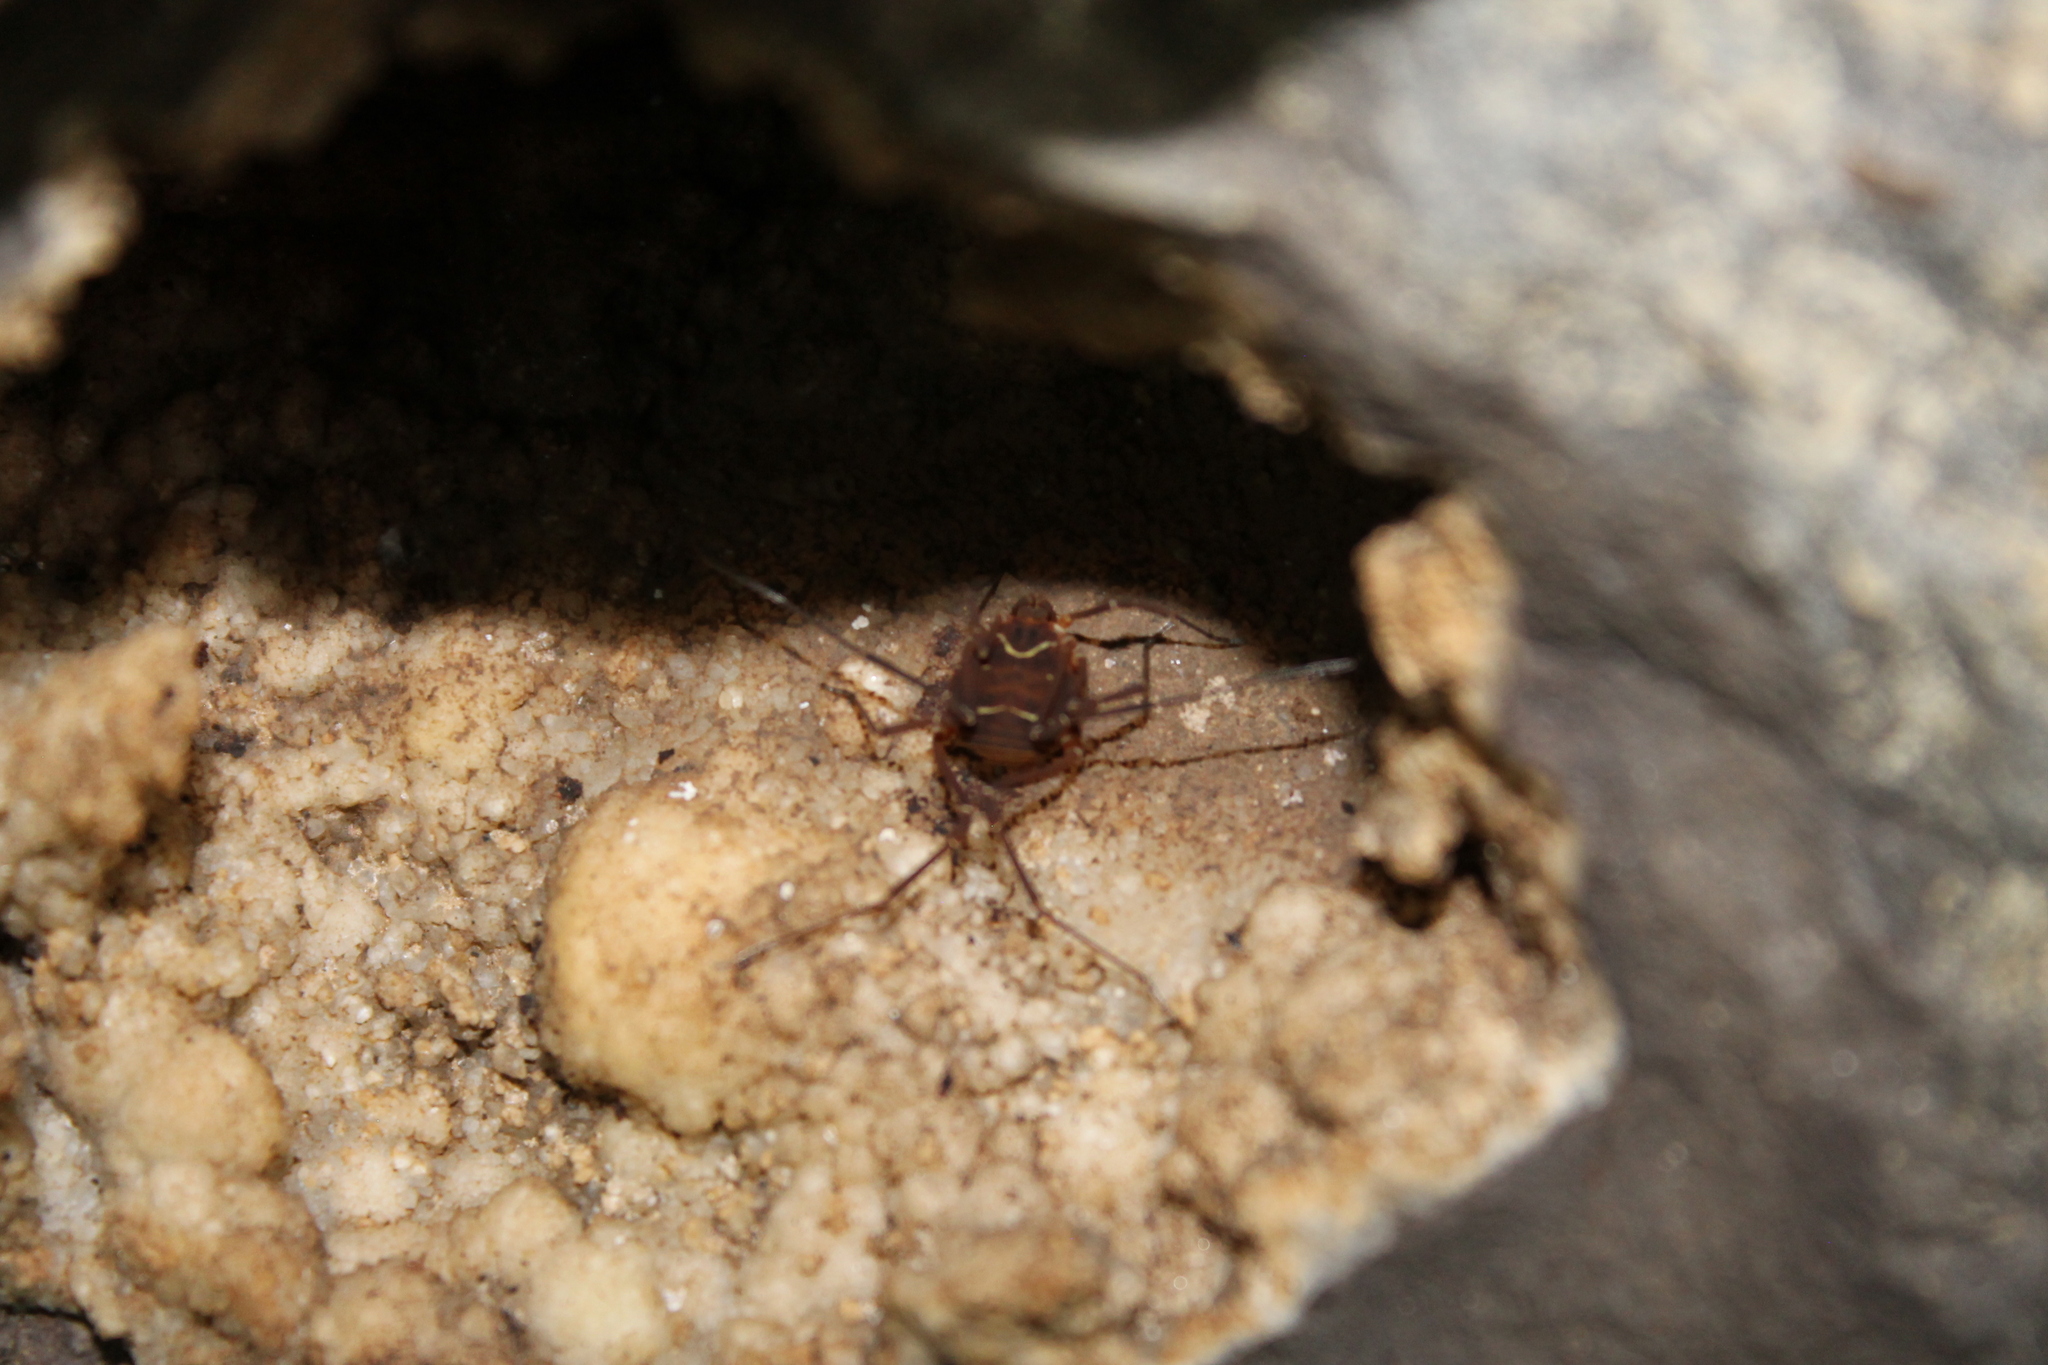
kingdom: Animalia
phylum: Arthropoda
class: Arachnida
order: Opiliones
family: Cosmetidae
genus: Libitioides
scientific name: Libitioides sayi
